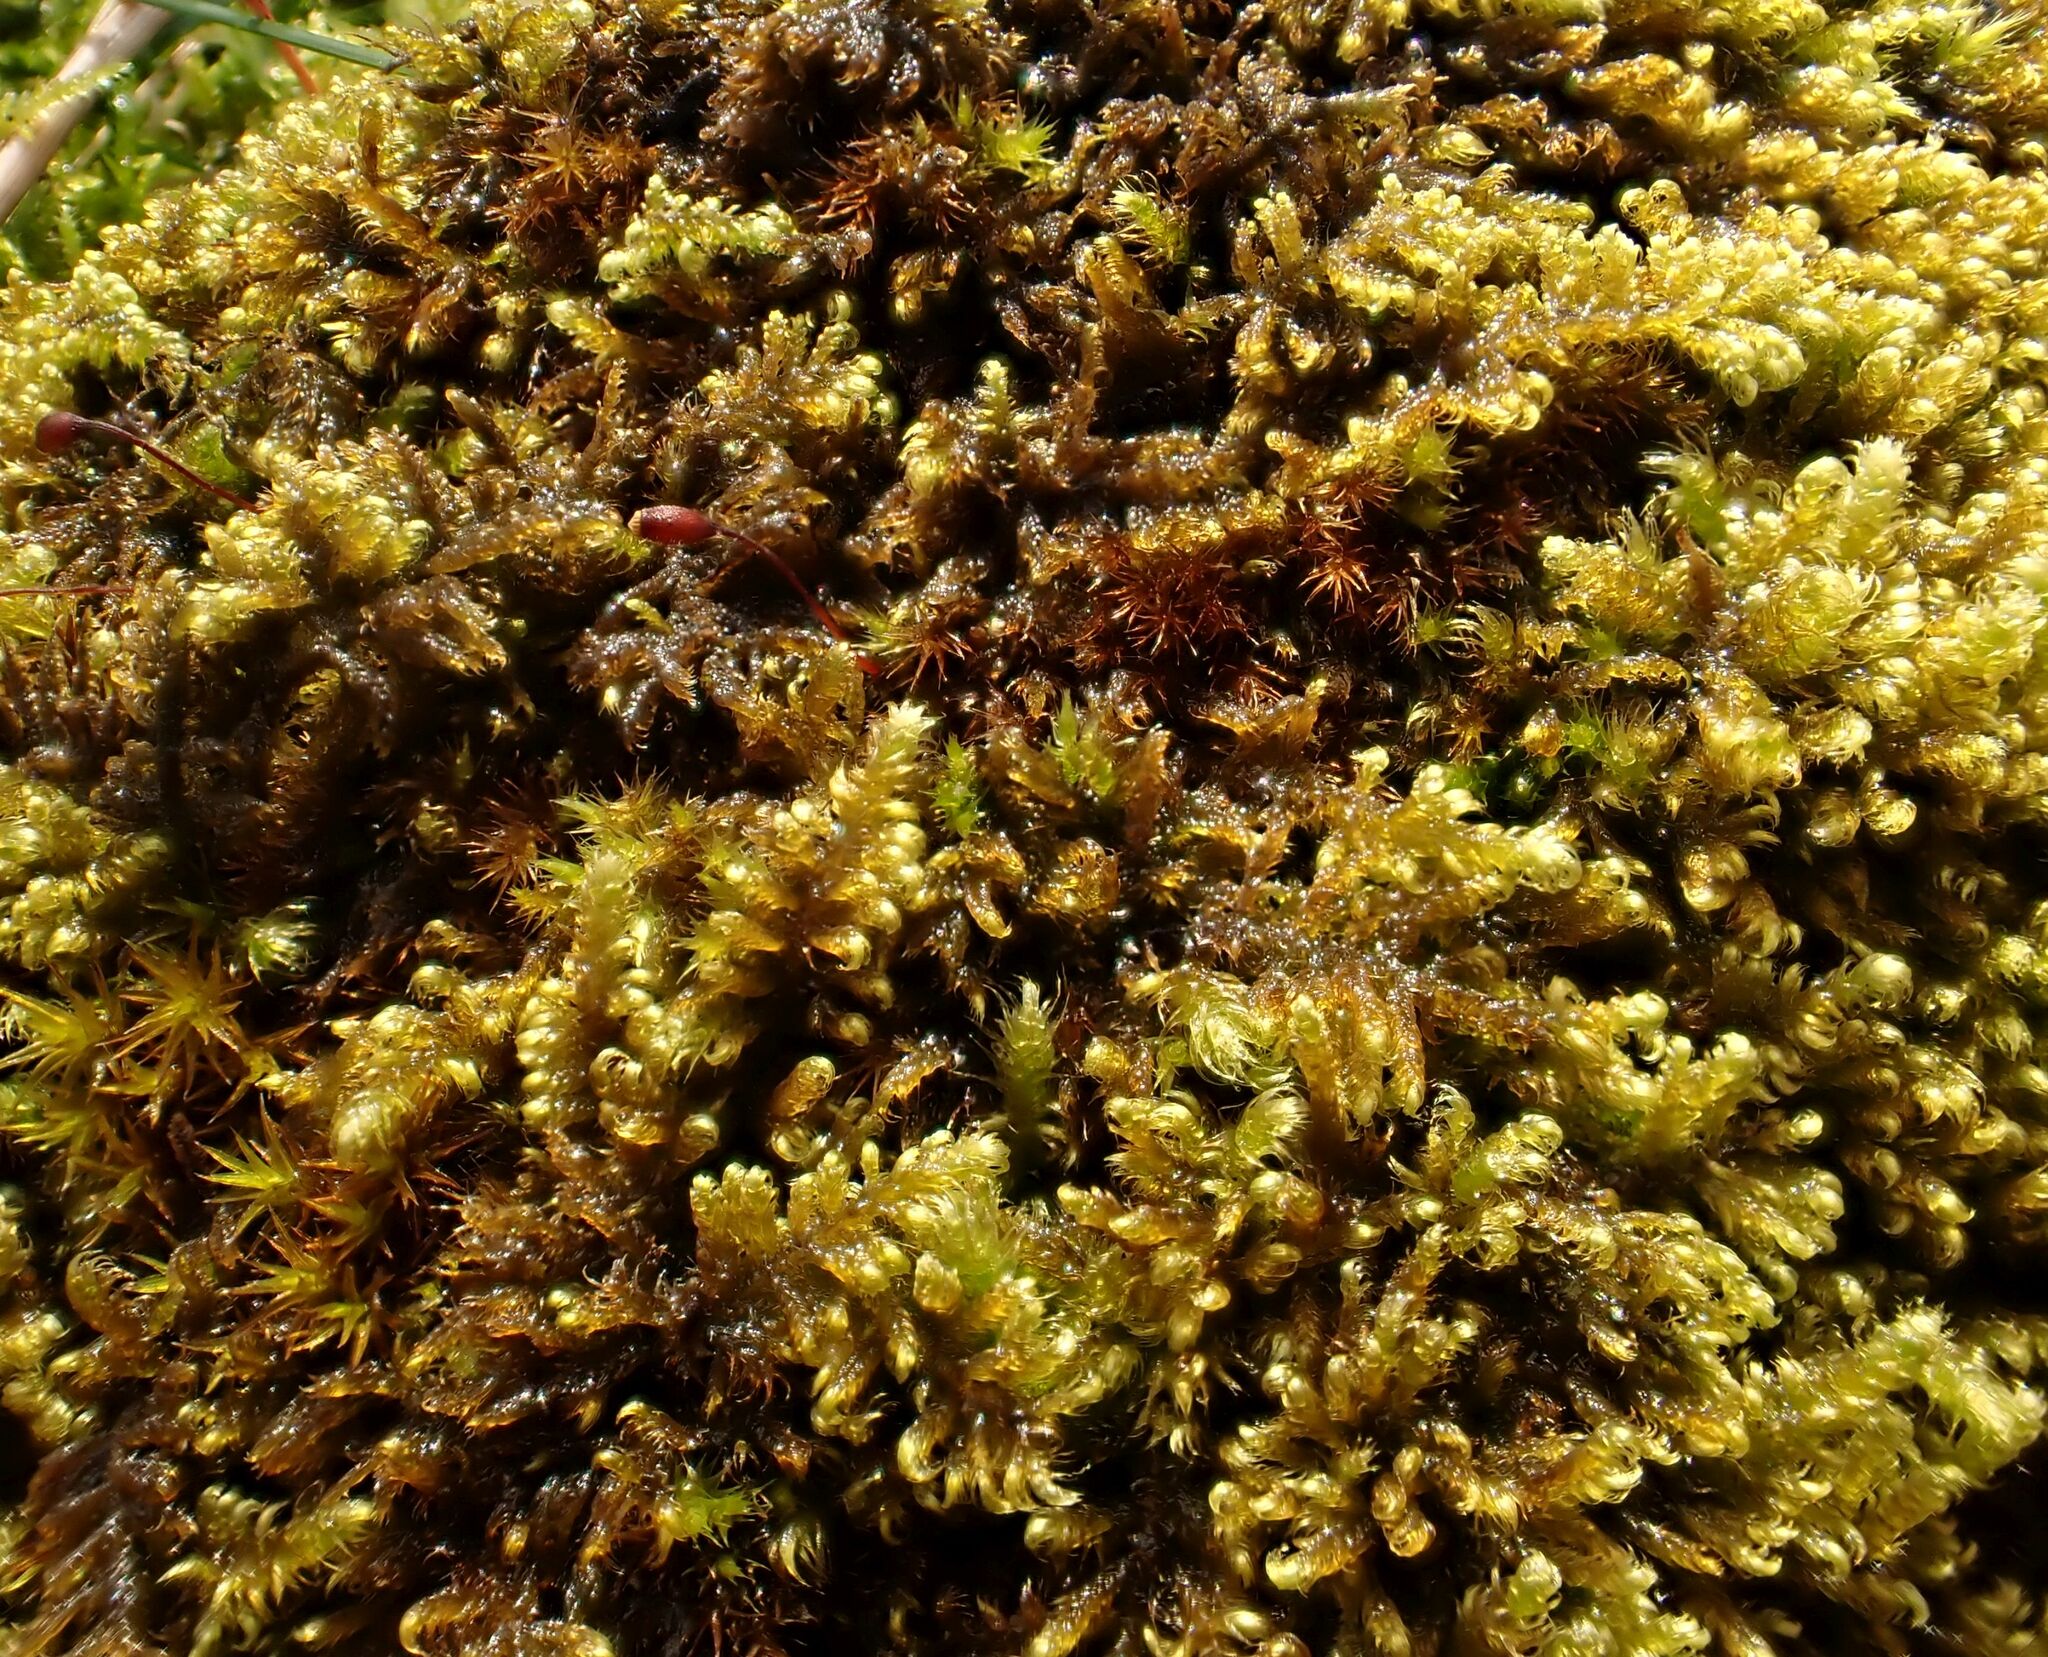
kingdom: Plantae
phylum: Bryophyta
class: Bryopsida
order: Hypnales
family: Myuriaceae
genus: Ctenidium
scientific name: Ctenidium molluscum
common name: Chalk comb-moss
